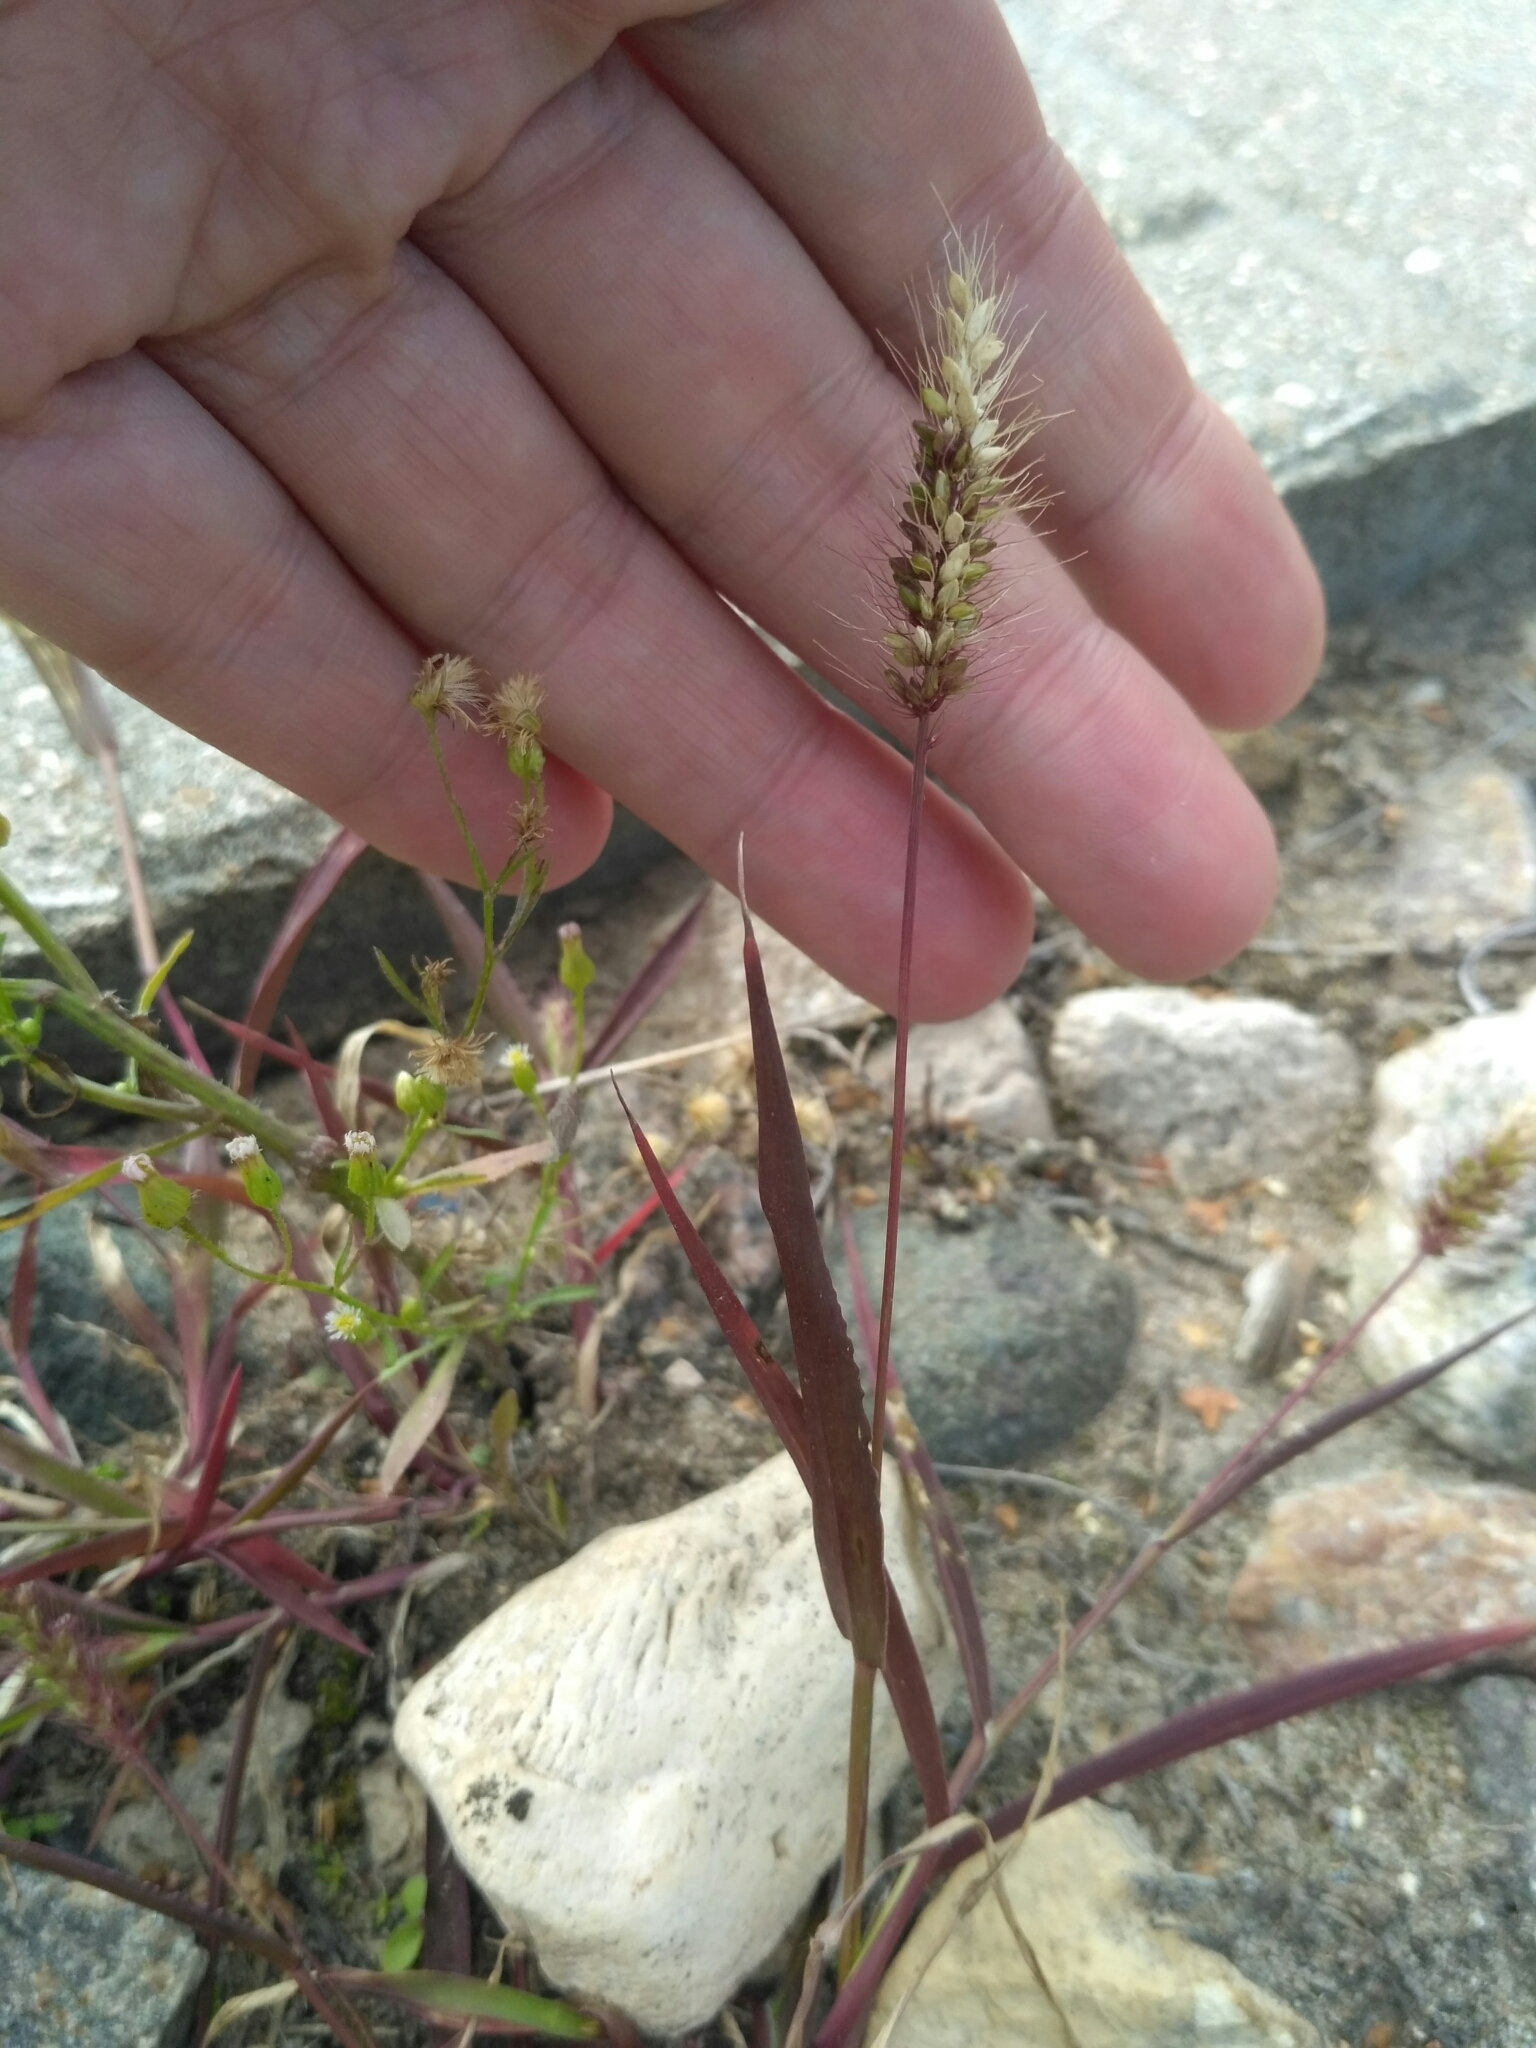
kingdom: Plantae
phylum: Tracheophyta
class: Liliopsida
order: Poales
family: Poaceae
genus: Setaria
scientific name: Setaria viridis
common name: Green bristlegrass
